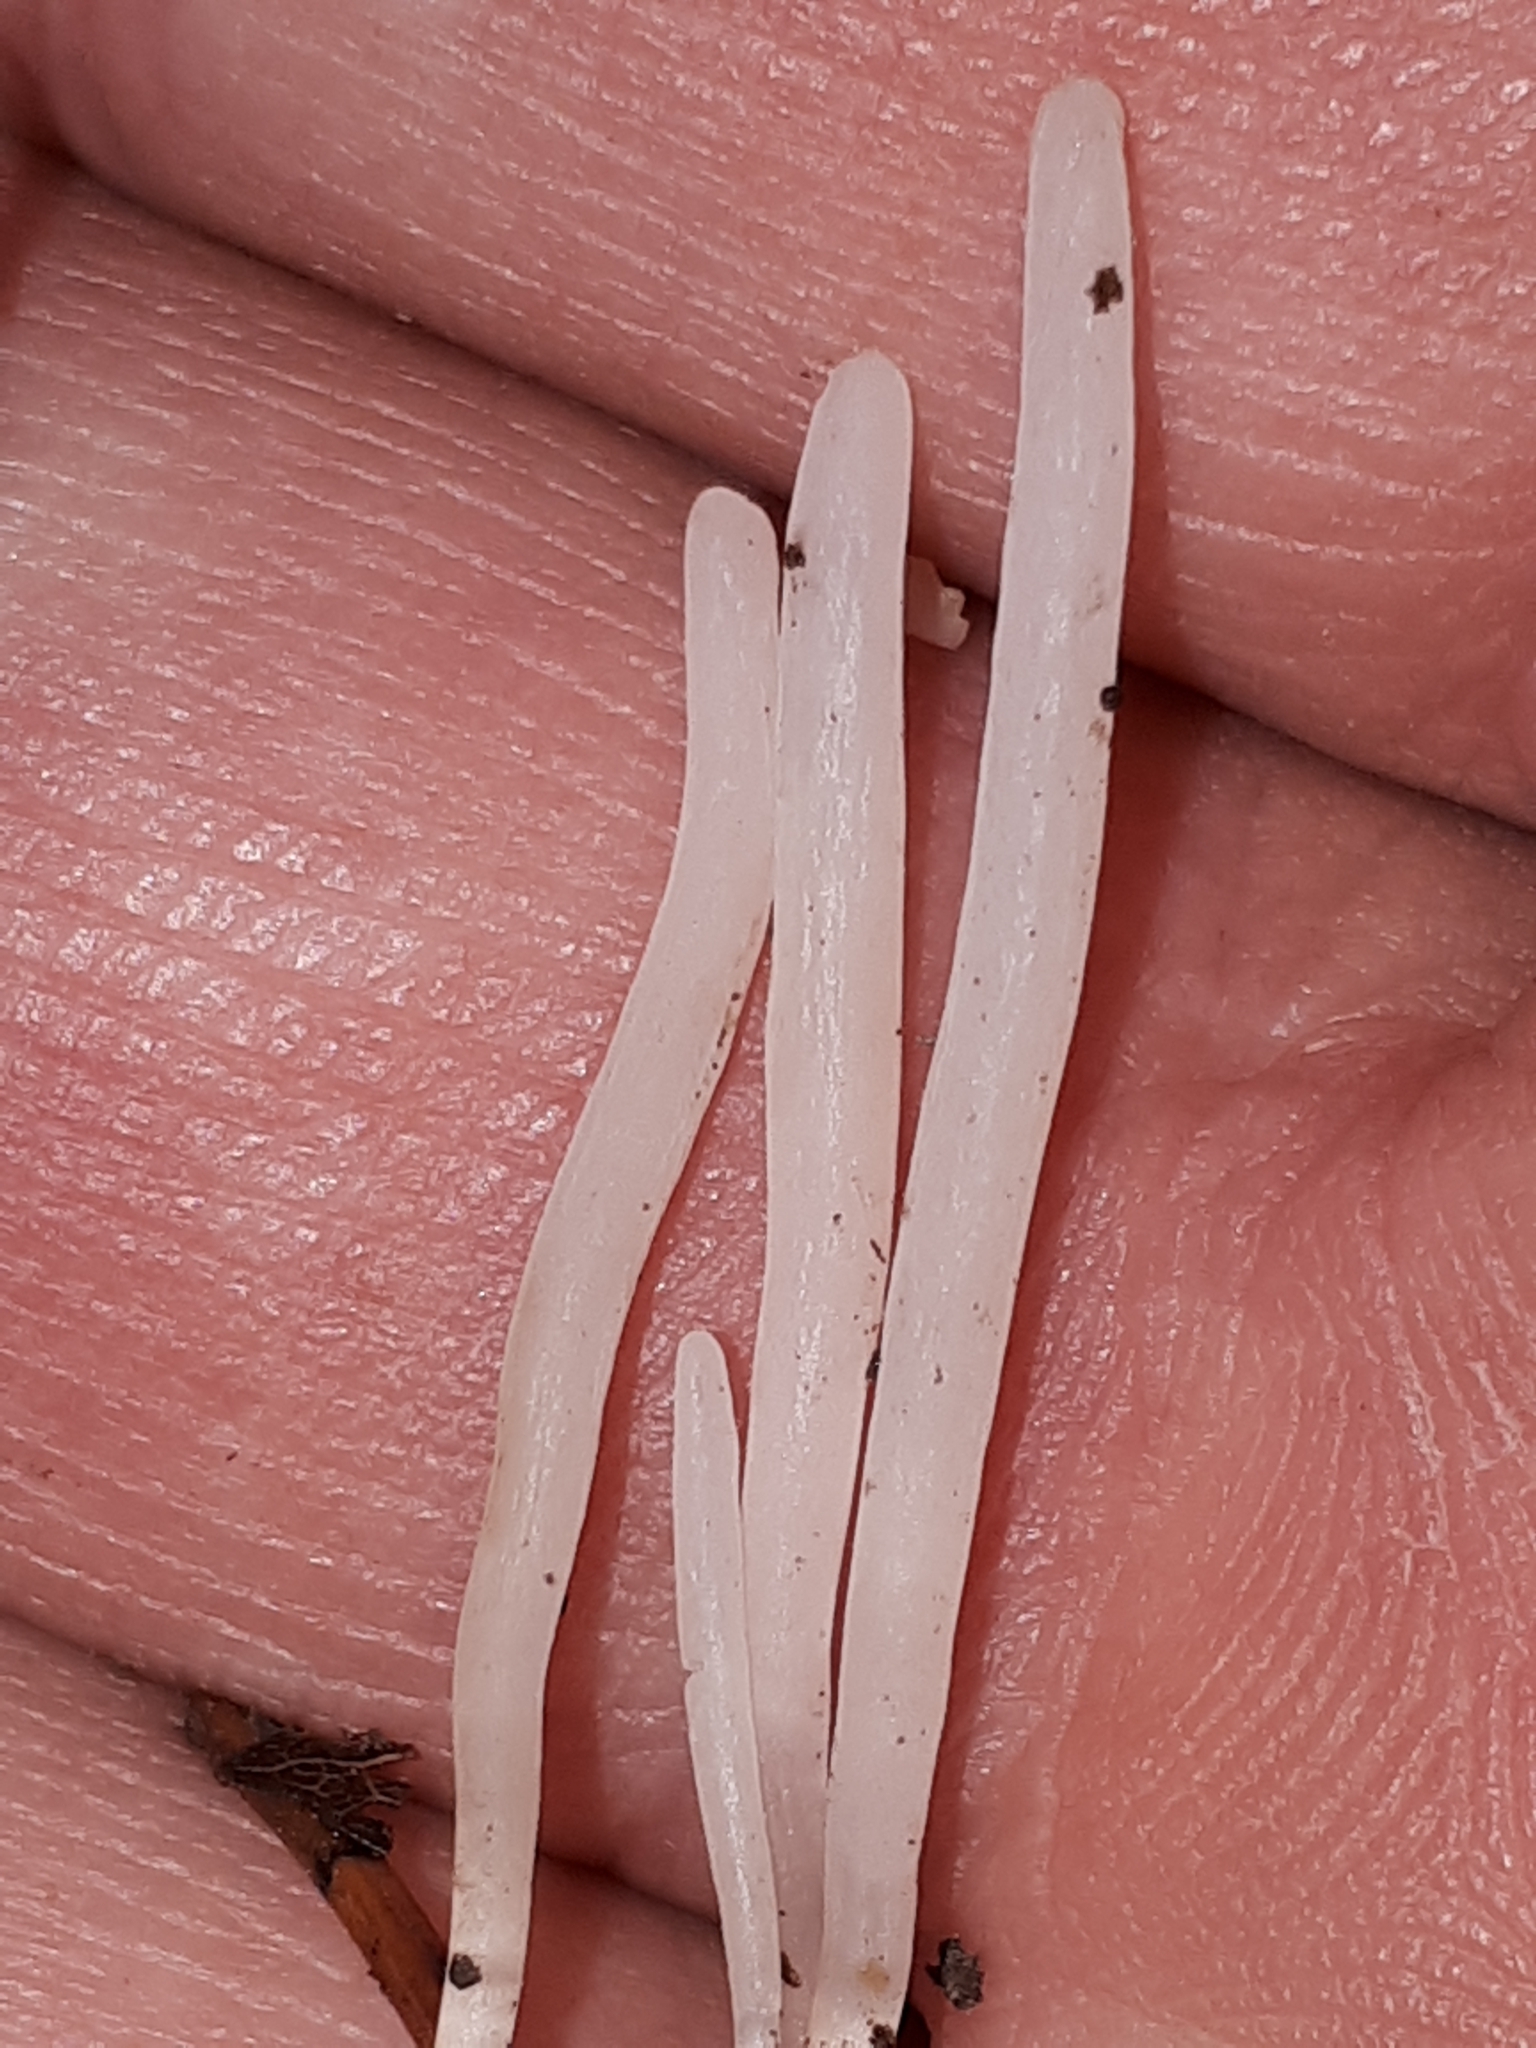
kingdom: Fungi
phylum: Basidiomycota
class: Agaricomycetes
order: Agaricales
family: Clavariaceae
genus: Clavaria
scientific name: Clavaria acuta
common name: Pointed club
